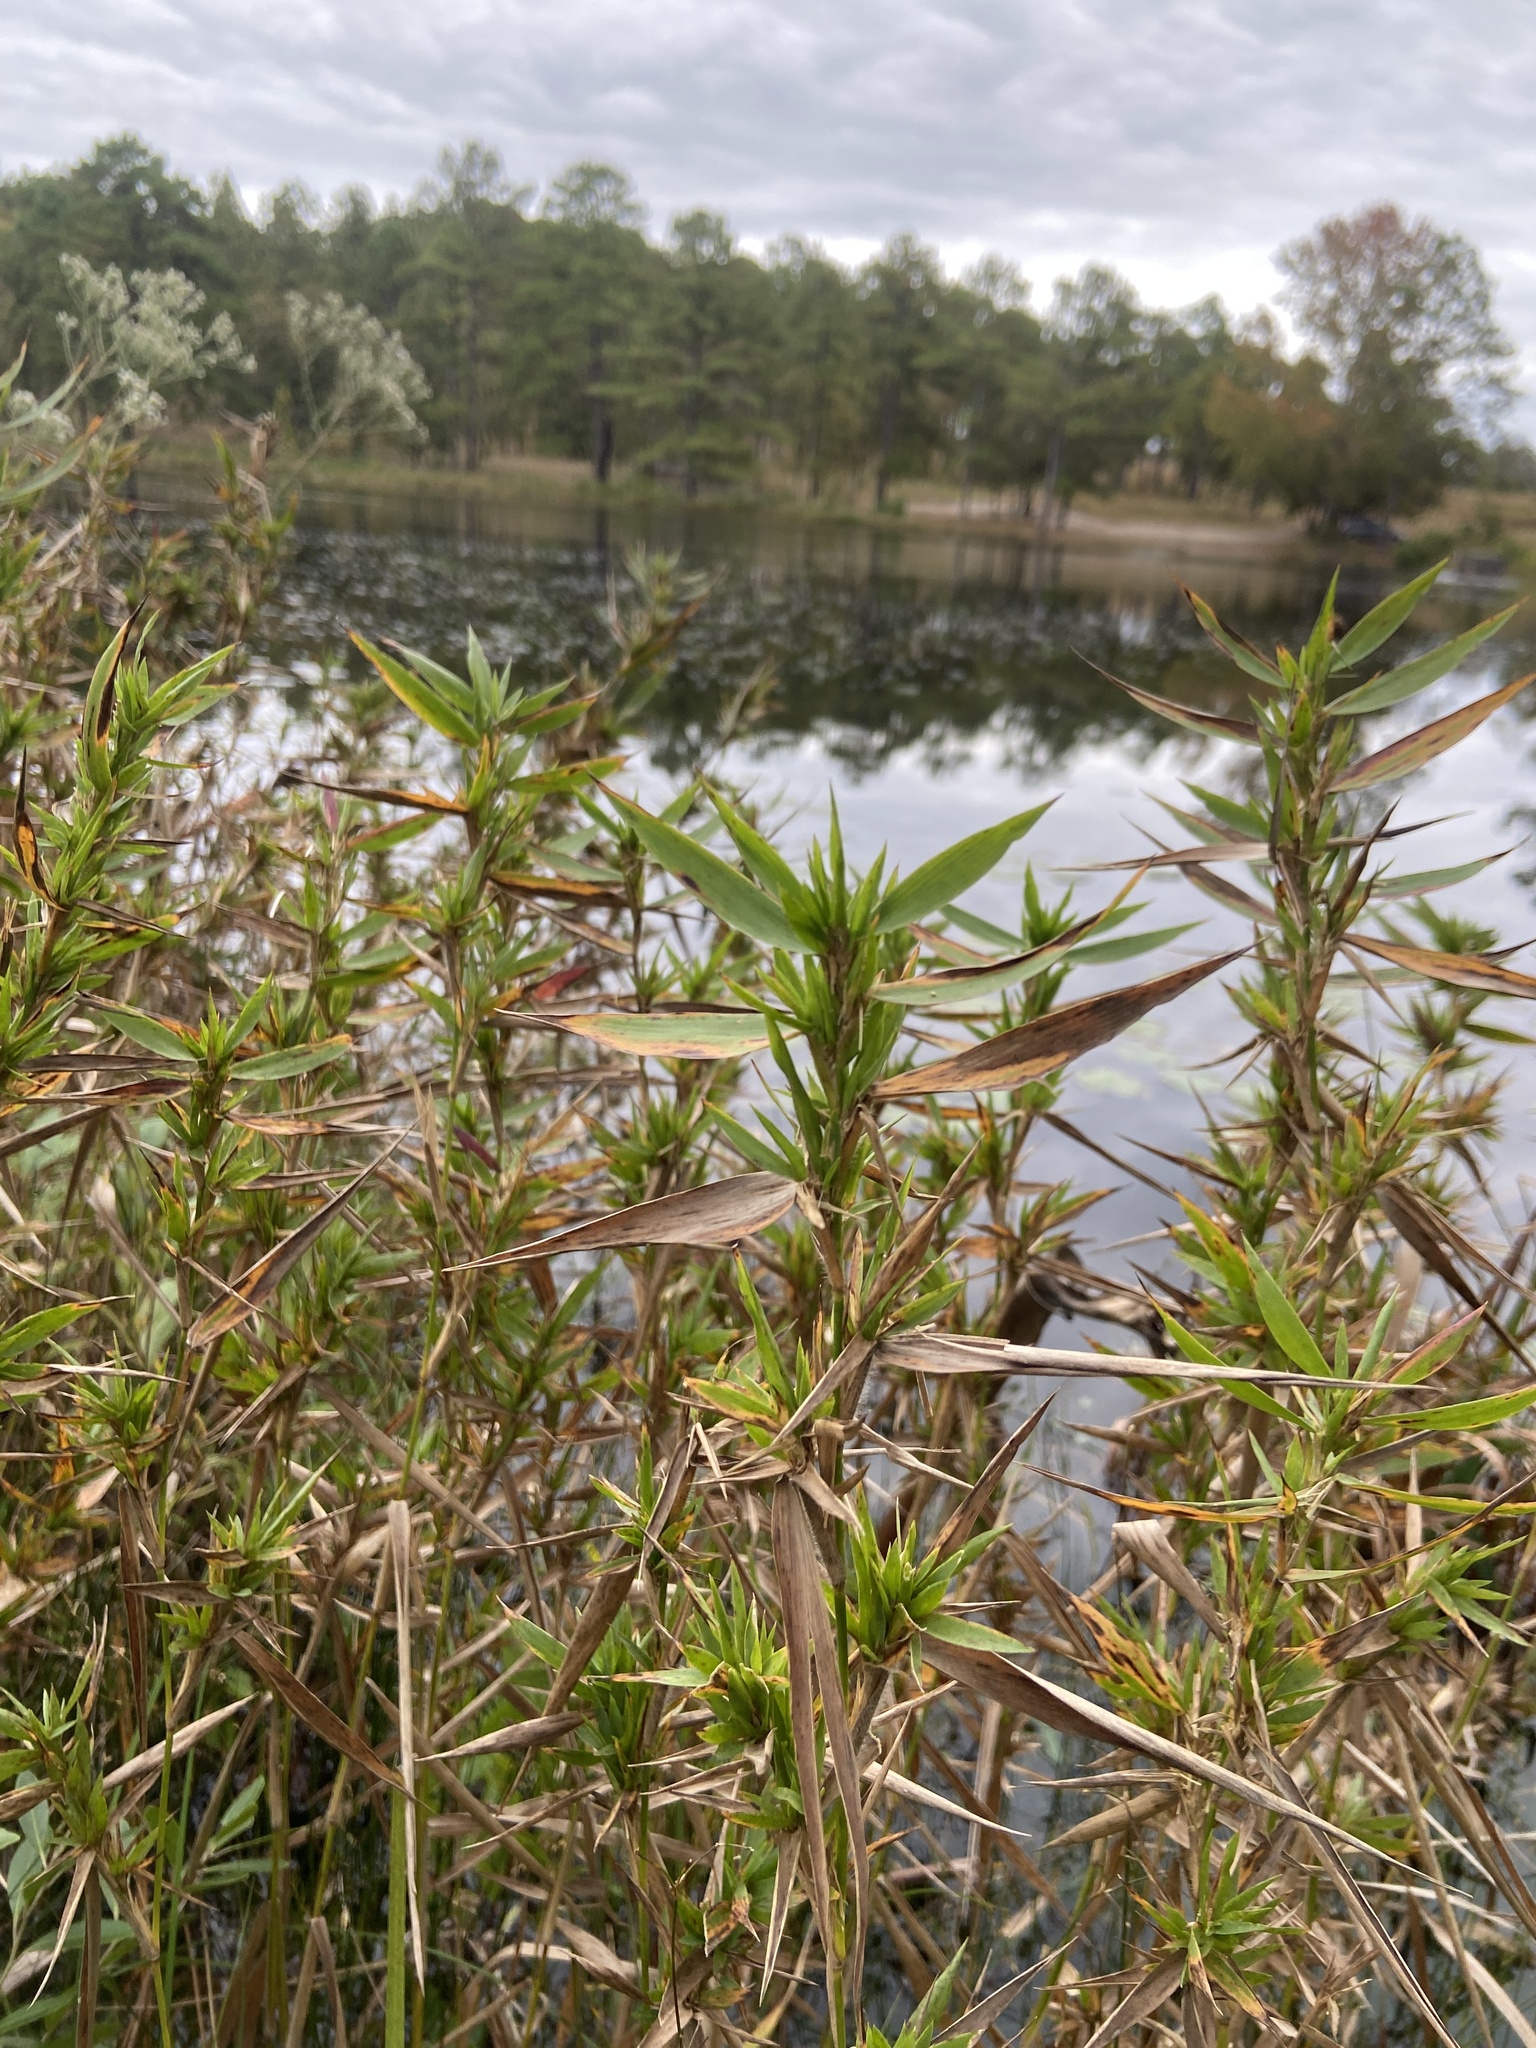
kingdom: Plantae
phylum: Tracheophyta
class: Liliopsida
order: Poales
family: Poaceae
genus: Dichanthelium
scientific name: Dichanthelium scabriusculum
